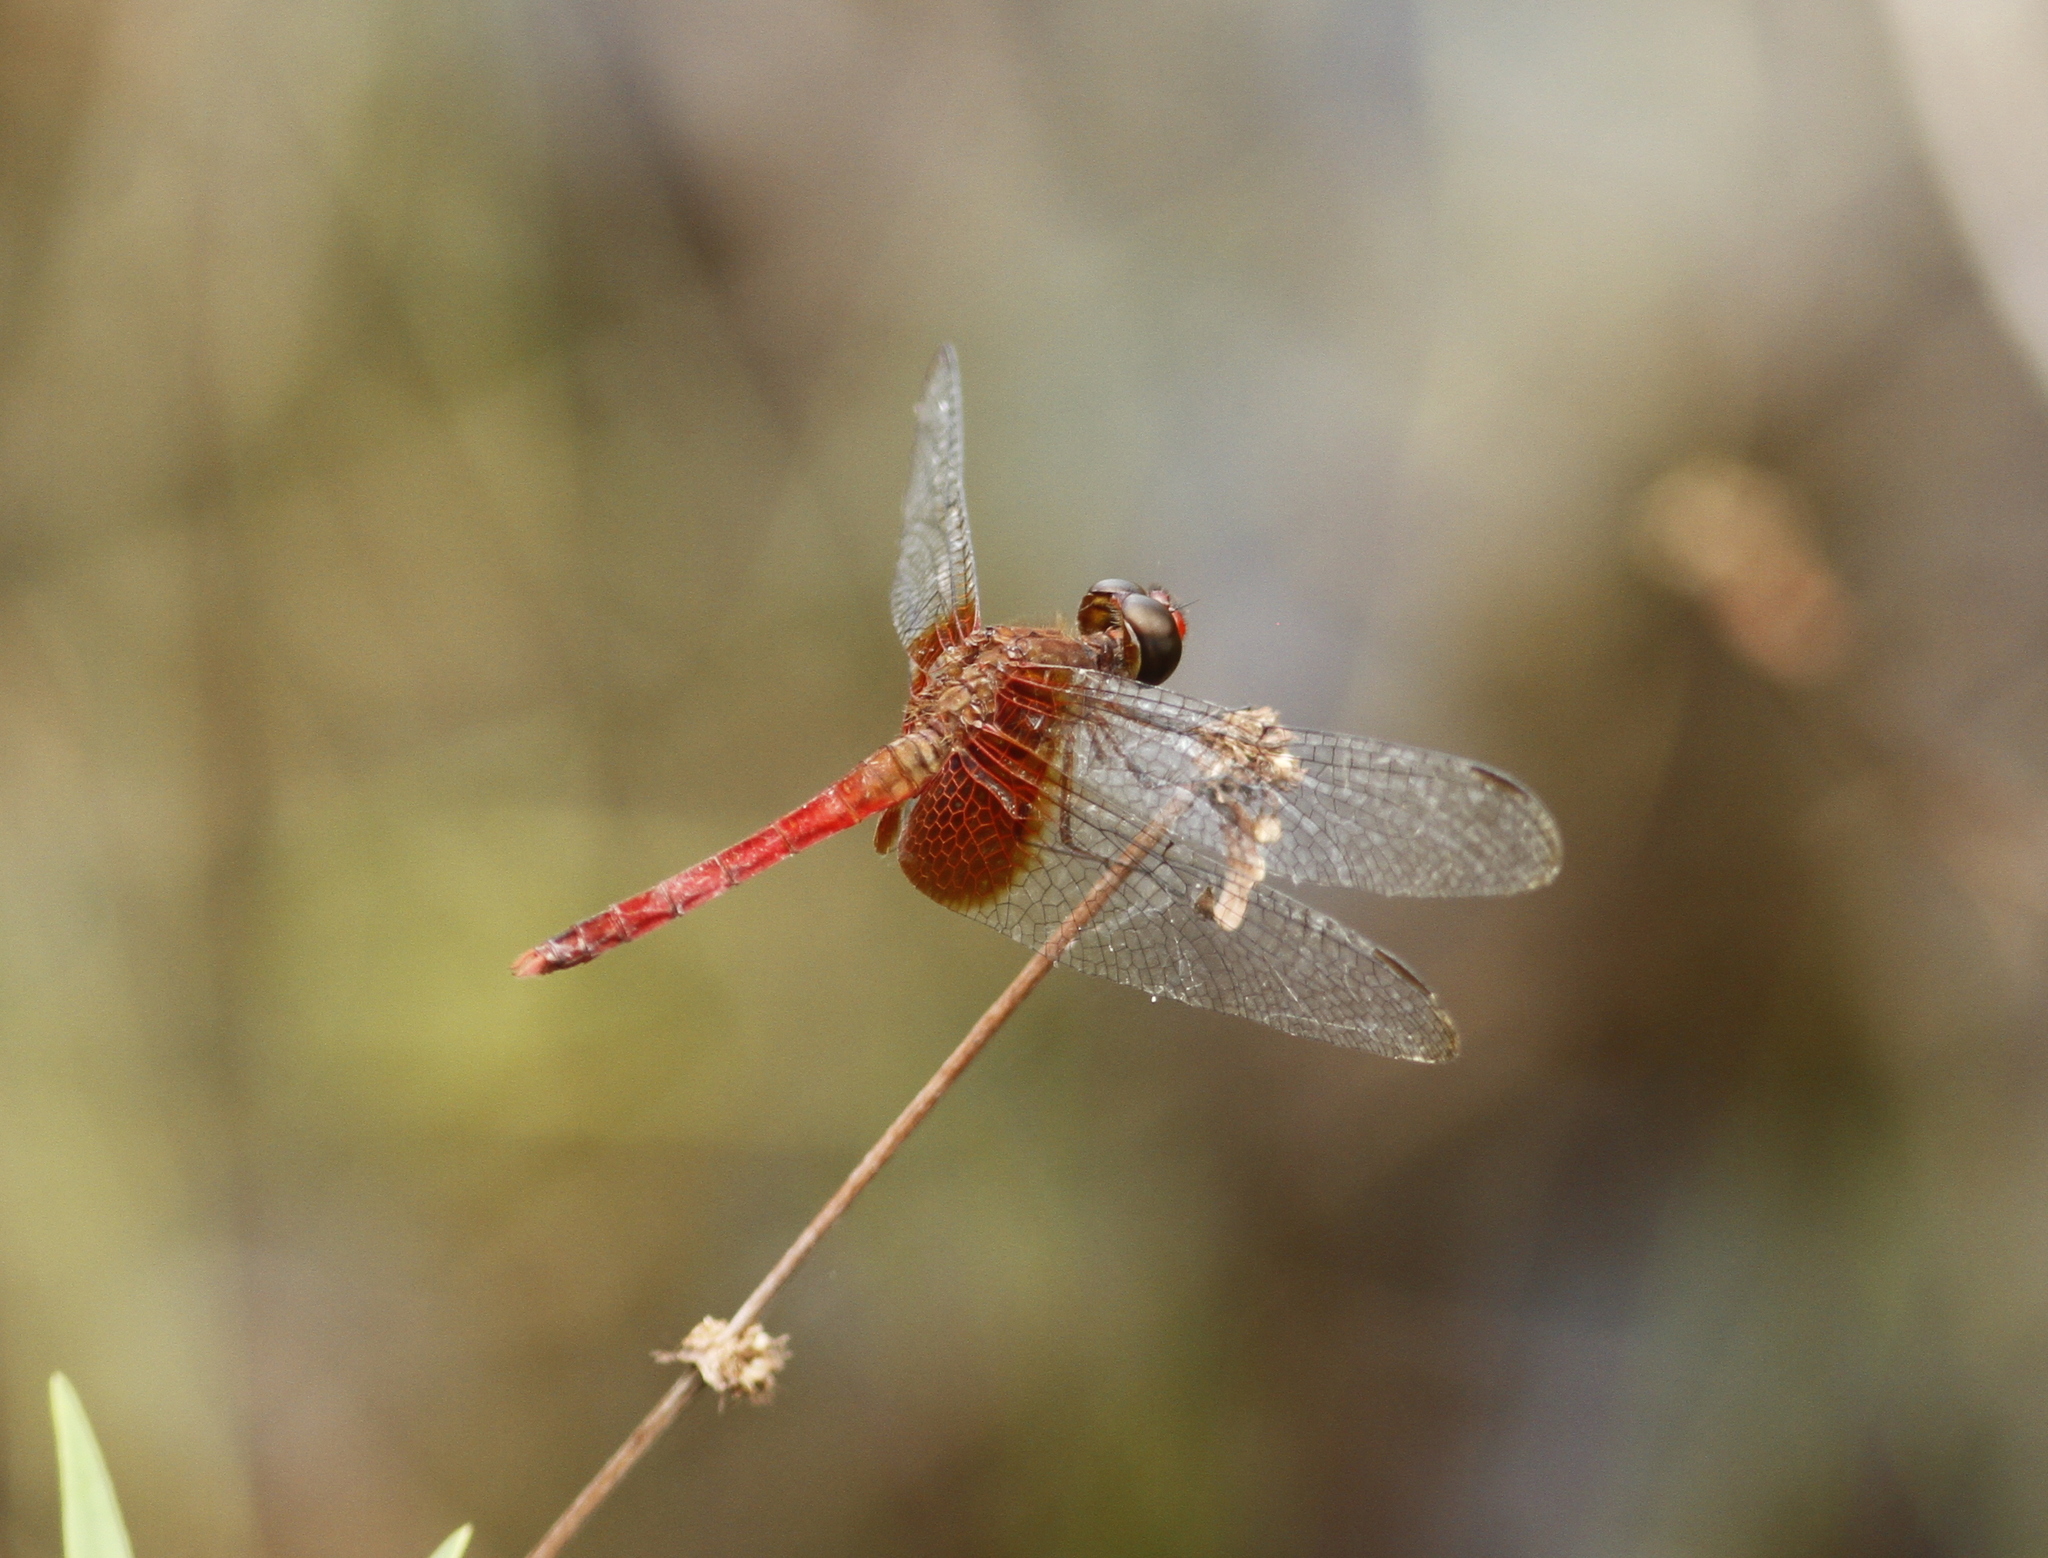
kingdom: Animalia
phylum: Arthropoda
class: Insecta
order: Odonata
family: Libellulidae
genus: Erythrodiplax
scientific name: Erythrodiplax famula
